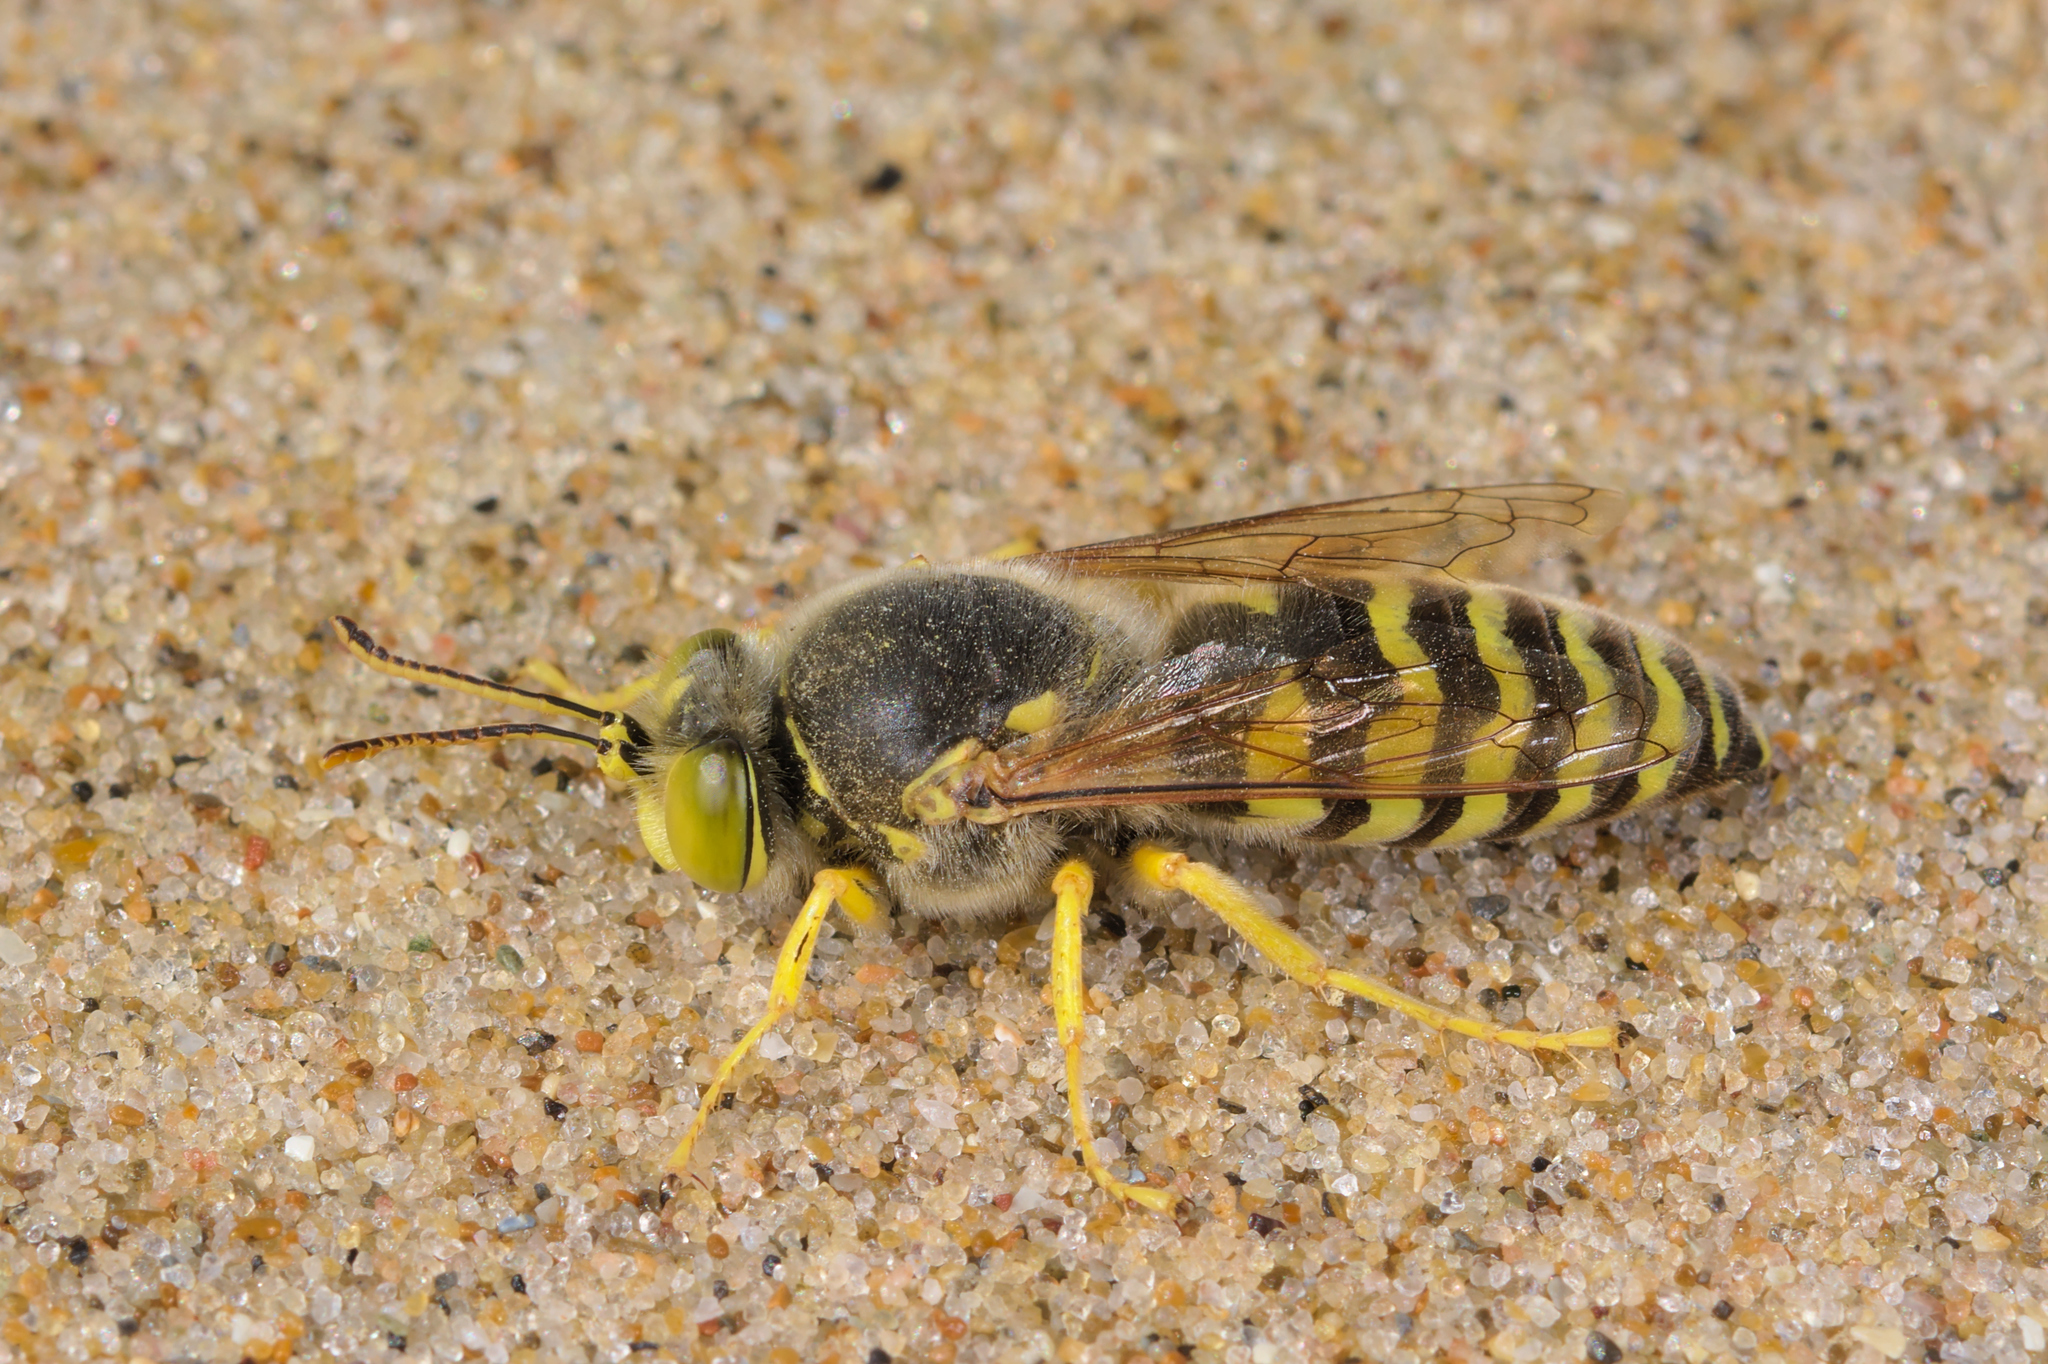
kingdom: Animalia
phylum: Arthropoda
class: Insecta
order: Hymenoptera
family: Crabronidae
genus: Bembix
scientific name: Bembix rostrata
